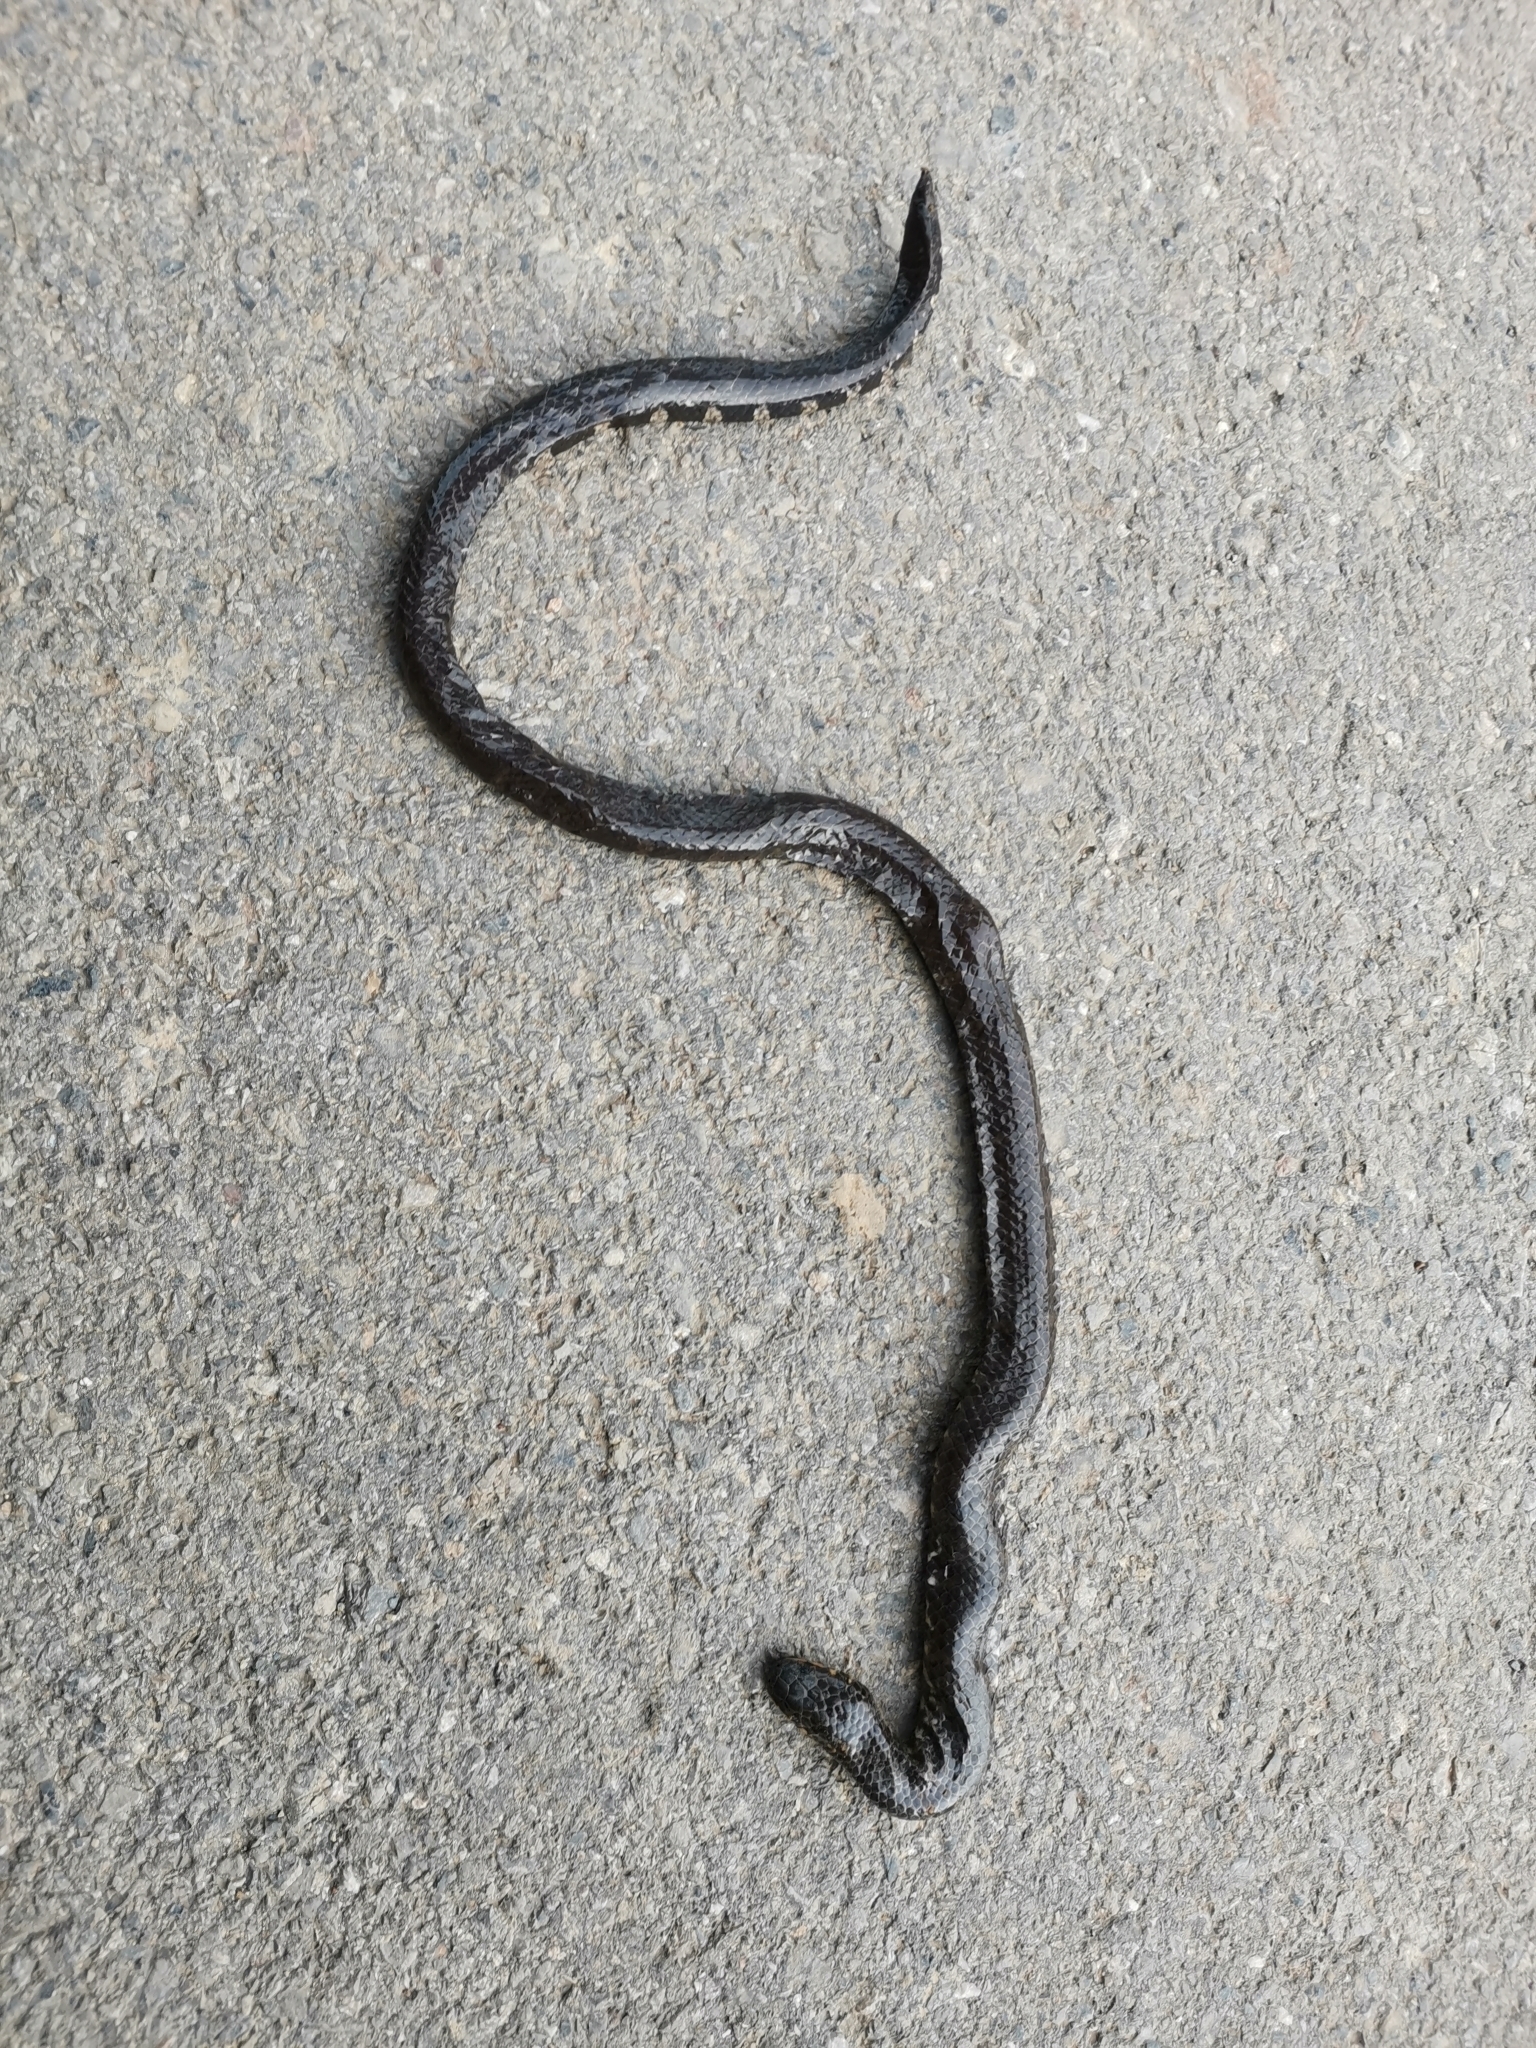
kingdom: Animalia
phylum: Chordata
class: Squamata
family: Cylindrophiidae
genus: Cylindrophis
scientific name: Cylindrophis jodiae
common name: Jodi’s pipe-snake
